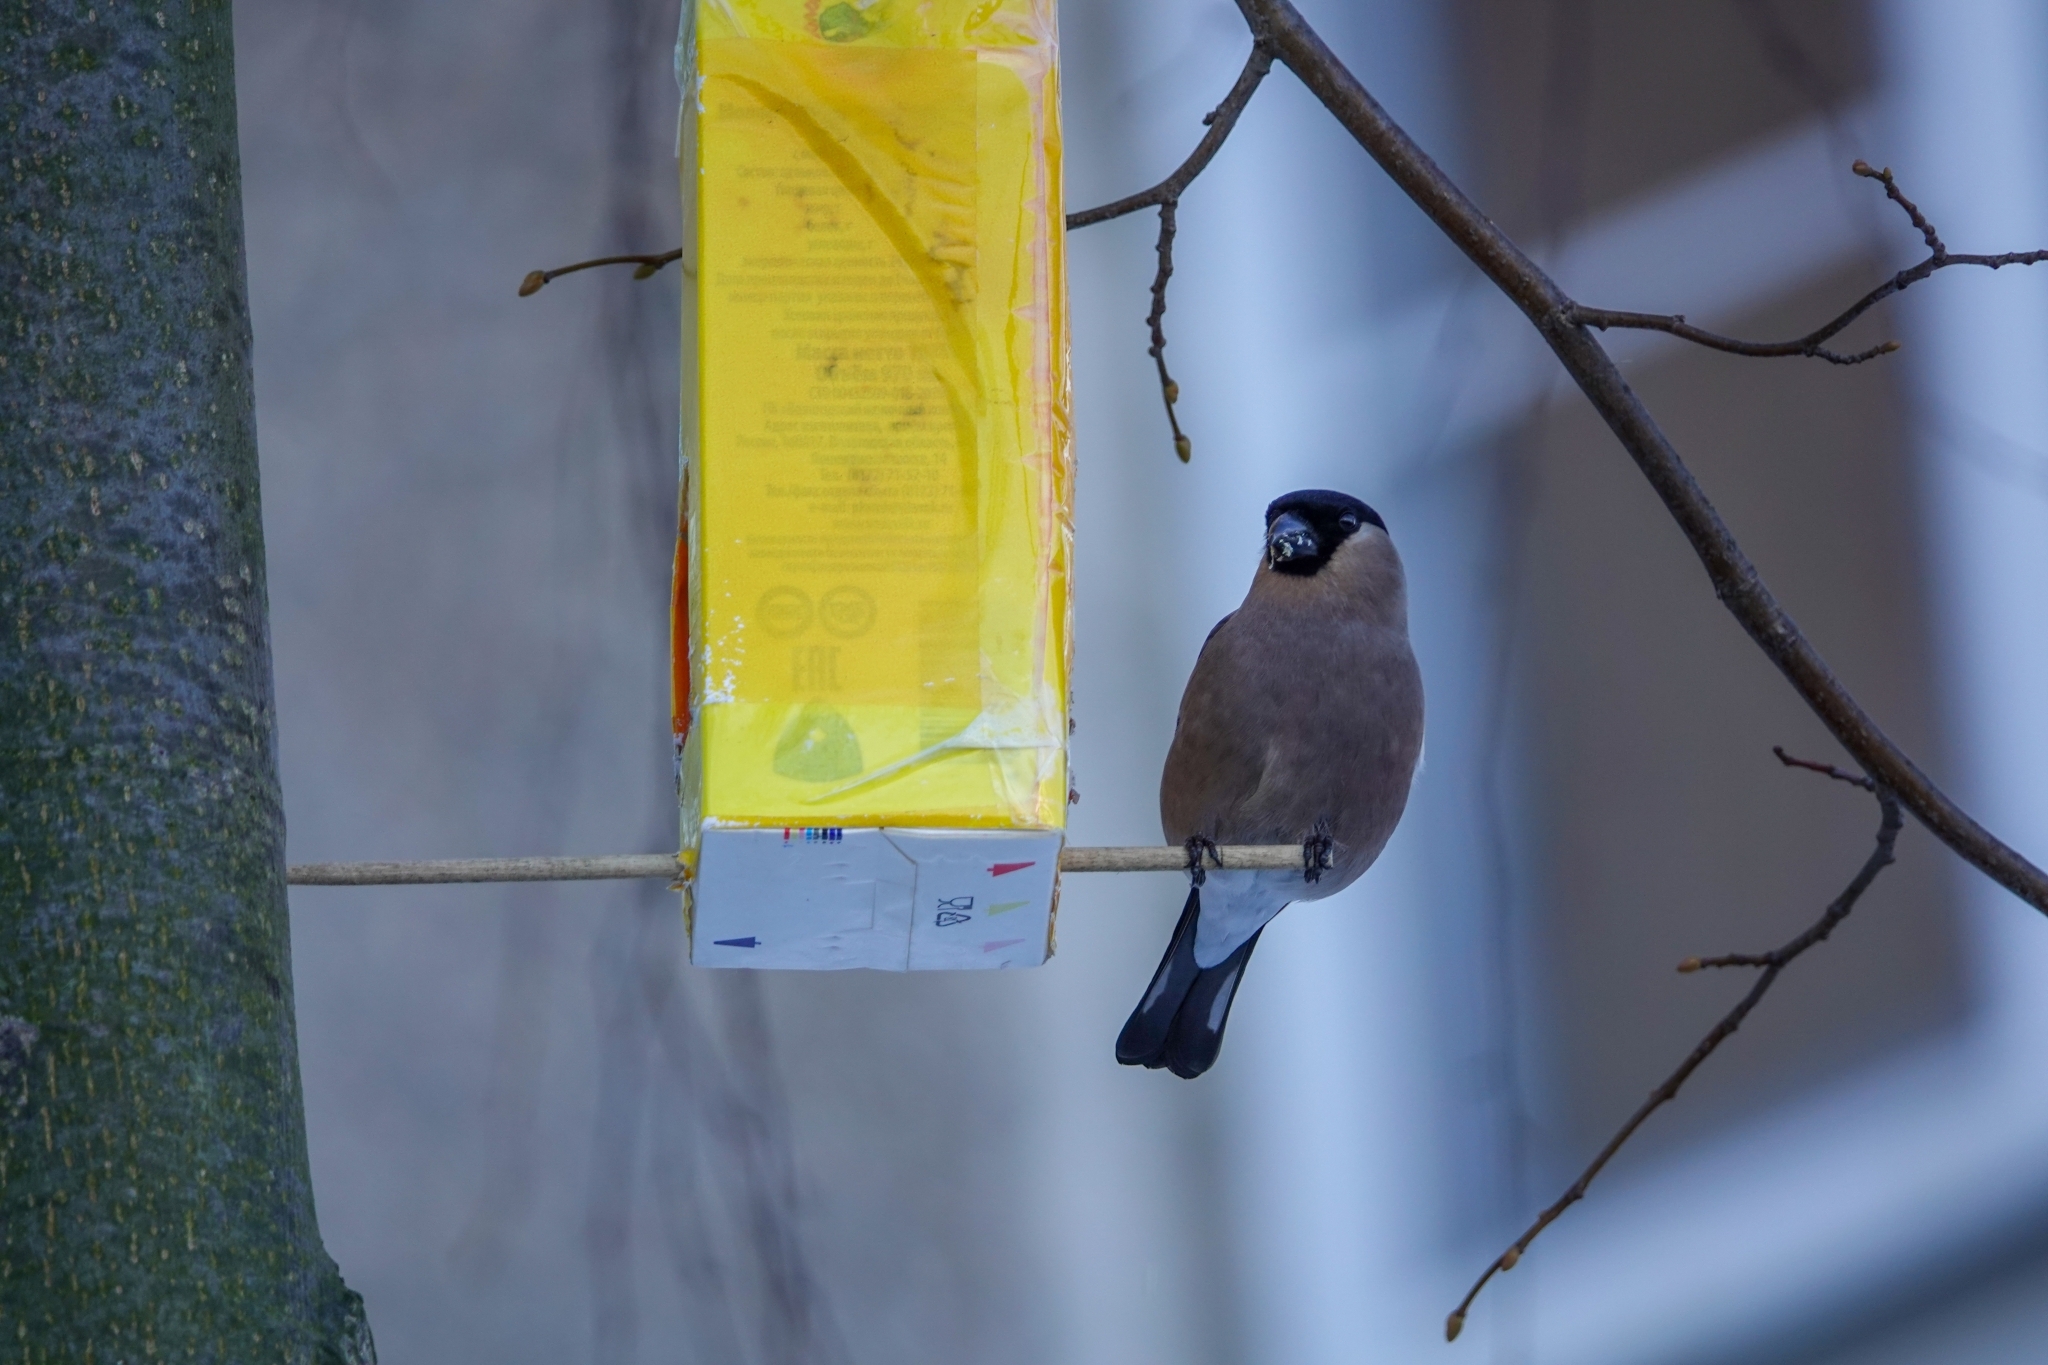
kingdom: Animalia
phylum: Chordata
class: Aves
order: Passeriformes
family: Fringillidae
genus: Pyrrhula
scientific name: Pyrrhula pyrrhula
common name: Eurasian bullfinch
